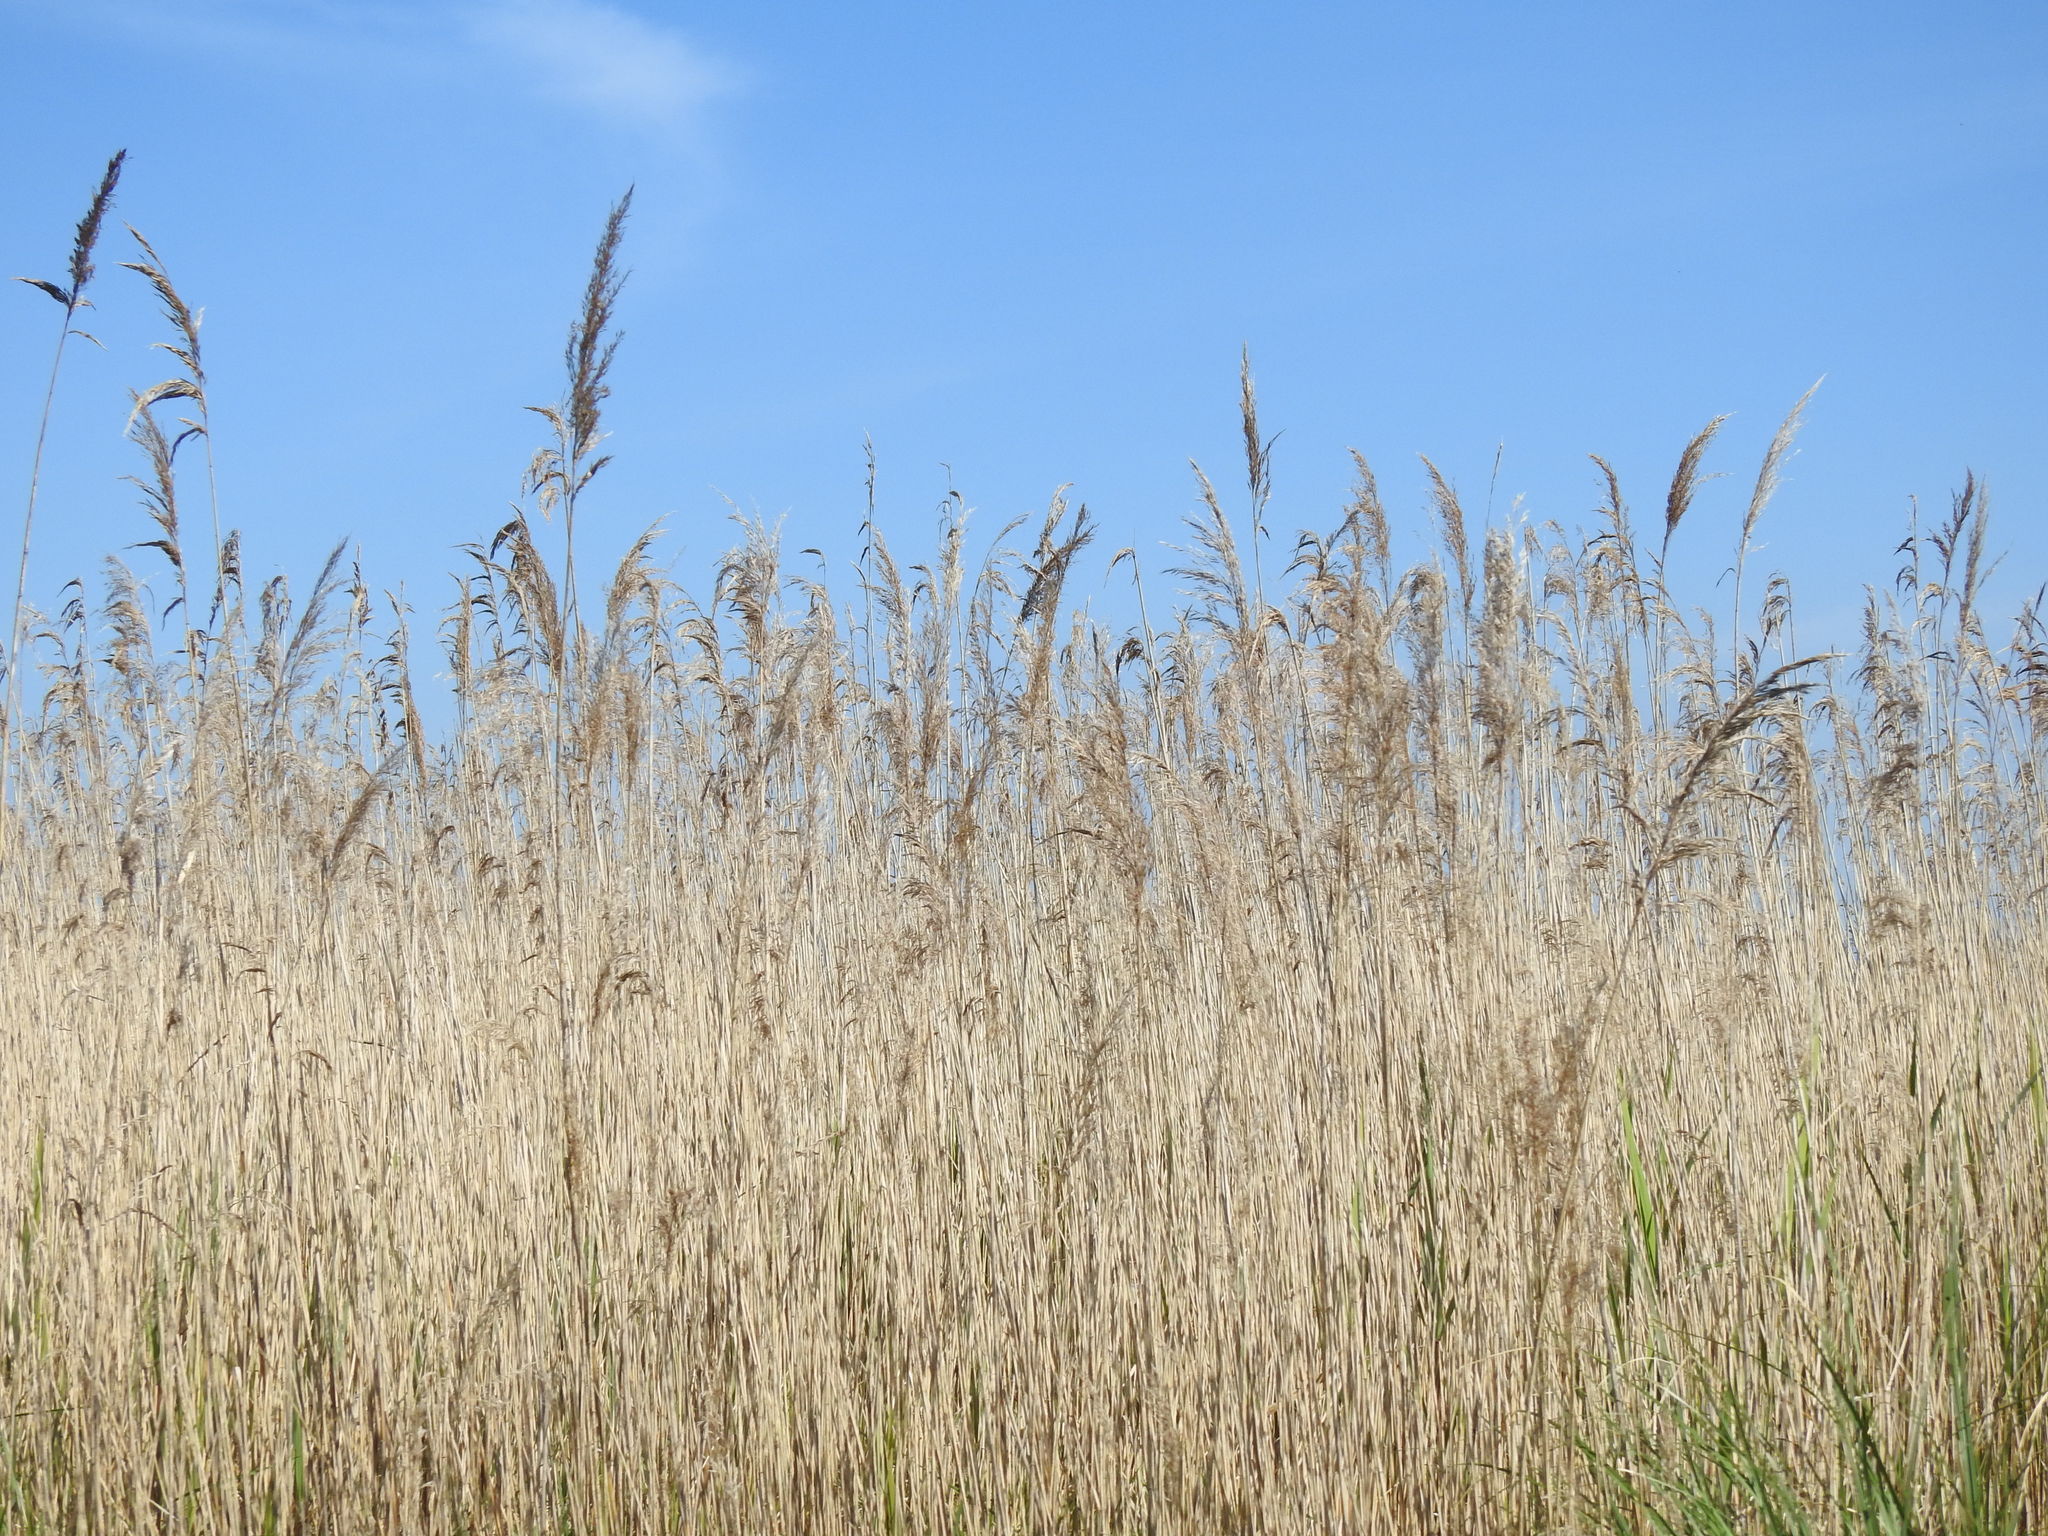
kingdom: Plantae
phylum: Tracheophyta
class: Liliopsida
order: Poales
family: Poaceae
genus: Phragmites
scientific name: Phragmites australis
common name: Common reed
